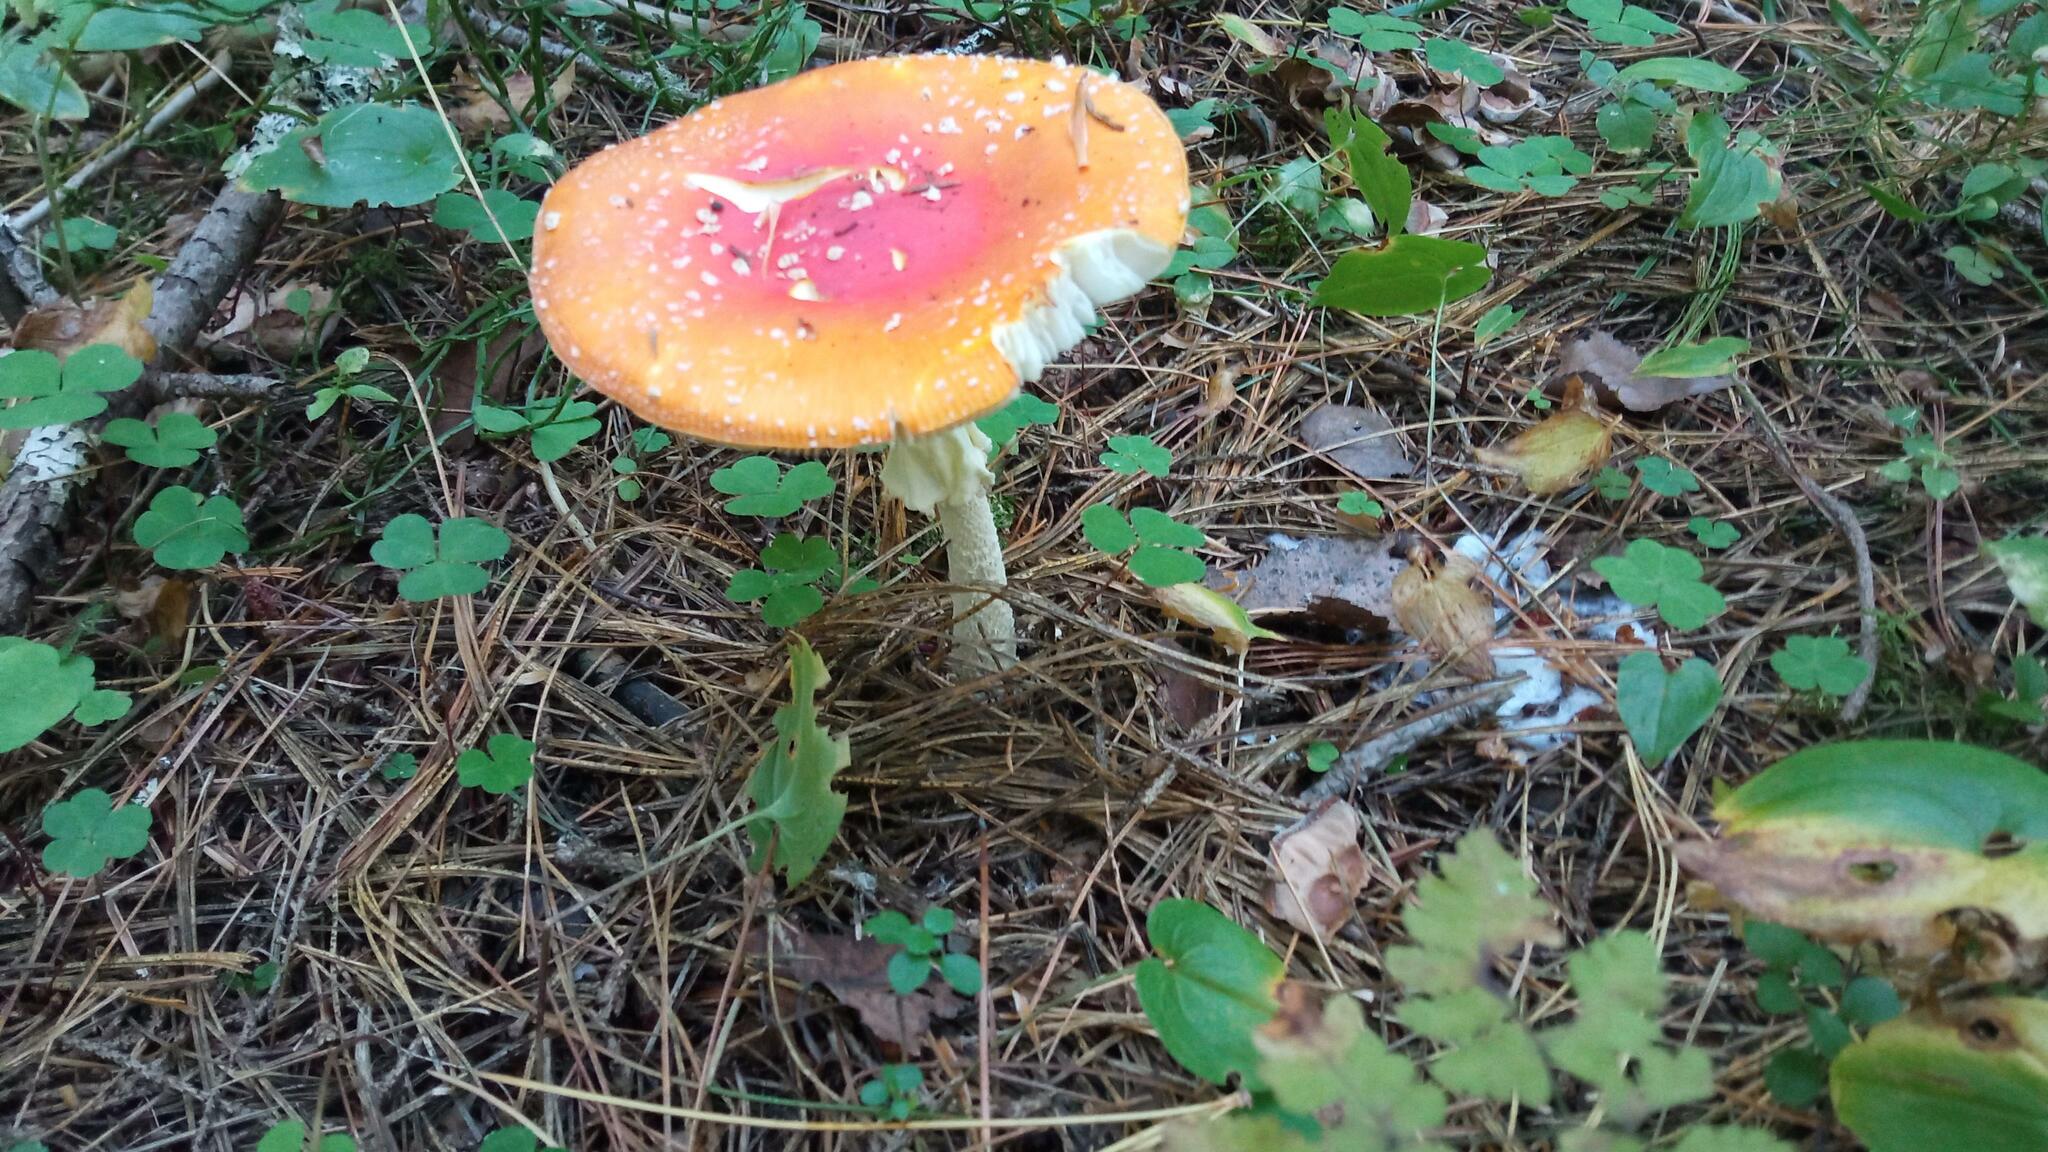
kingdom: Fungi
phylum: Basidiomycota
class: Agaricomycetes
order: Agaricales
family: Amanitaceae
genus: Amanita
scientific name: Amanita muscaria
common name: Fly agaric
